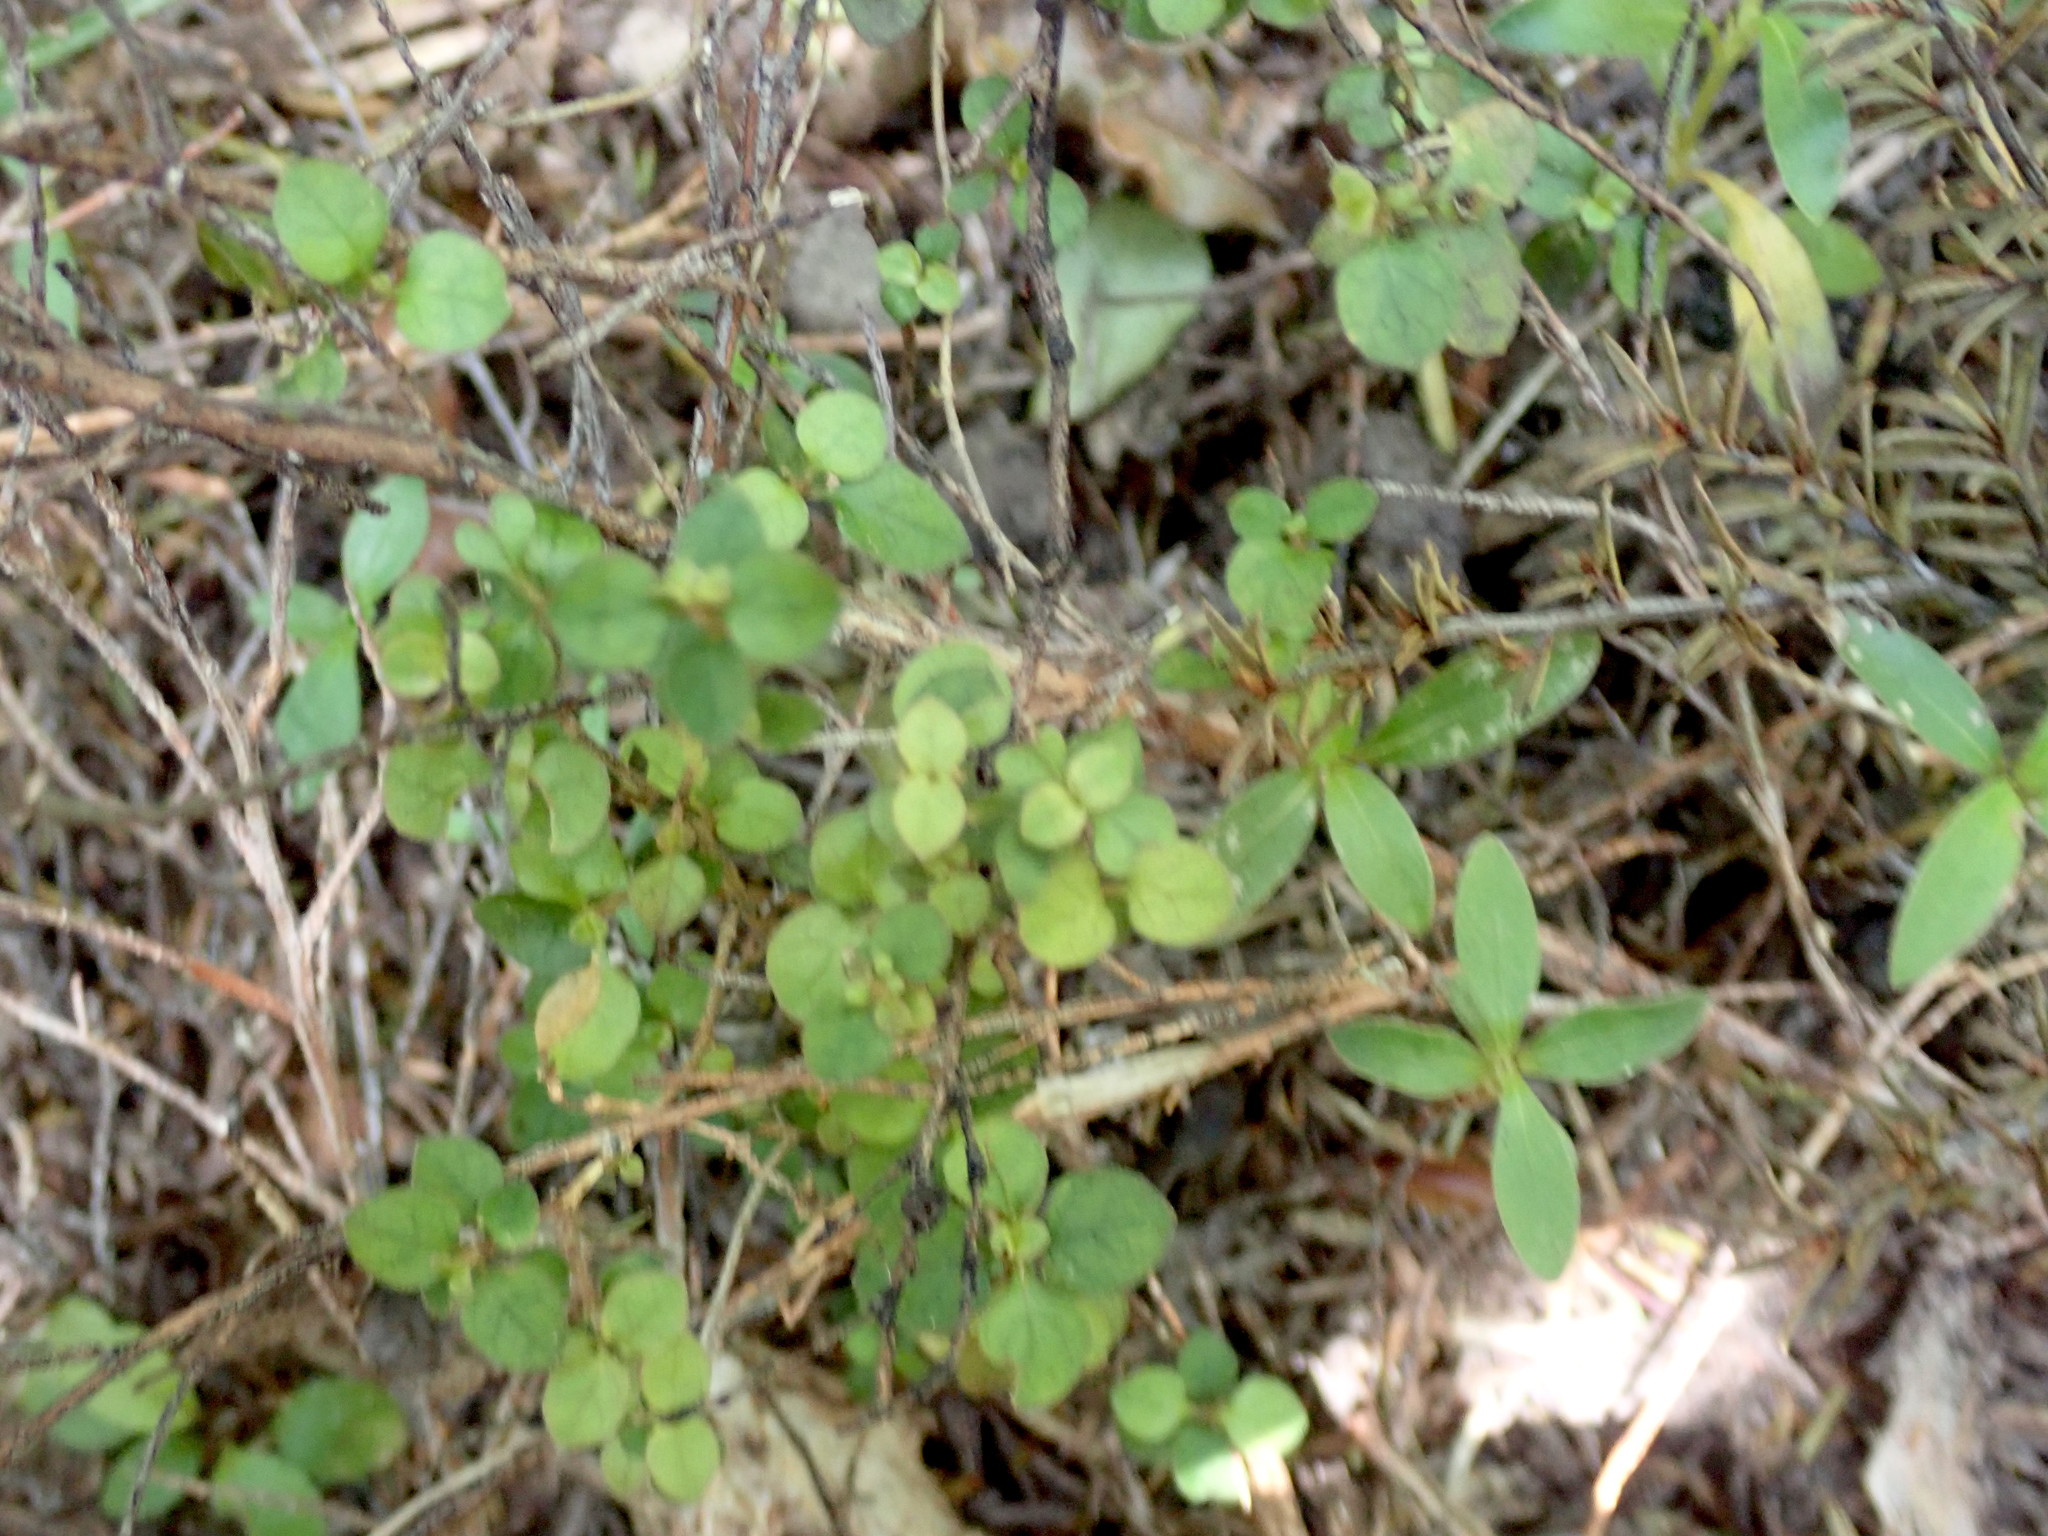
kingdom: Plantae
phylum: Tracheophyta
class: Magnoliopsida
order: Gentianales
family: Rubiaceae
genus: Coprosma
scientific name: Coprosma rhamnoides
